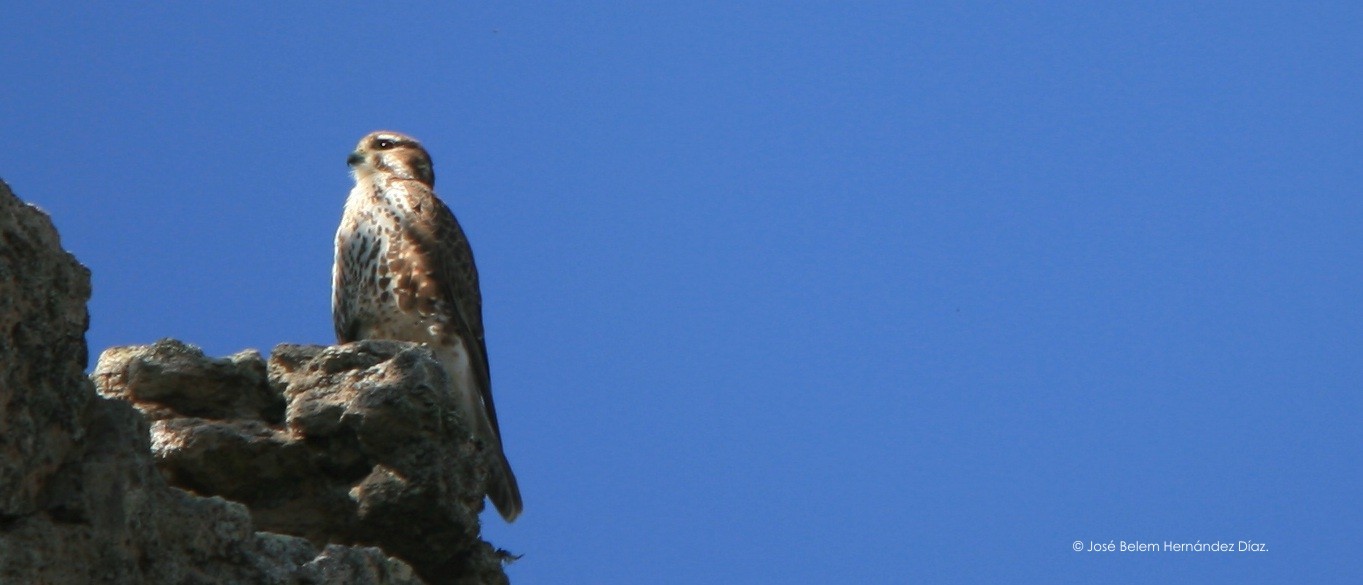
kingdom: Animalia
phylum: Chordata
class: Aves
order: Falconiformes
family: Falconidae
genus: Falco
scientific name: Falco mexicanus
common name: Prairie falcon
